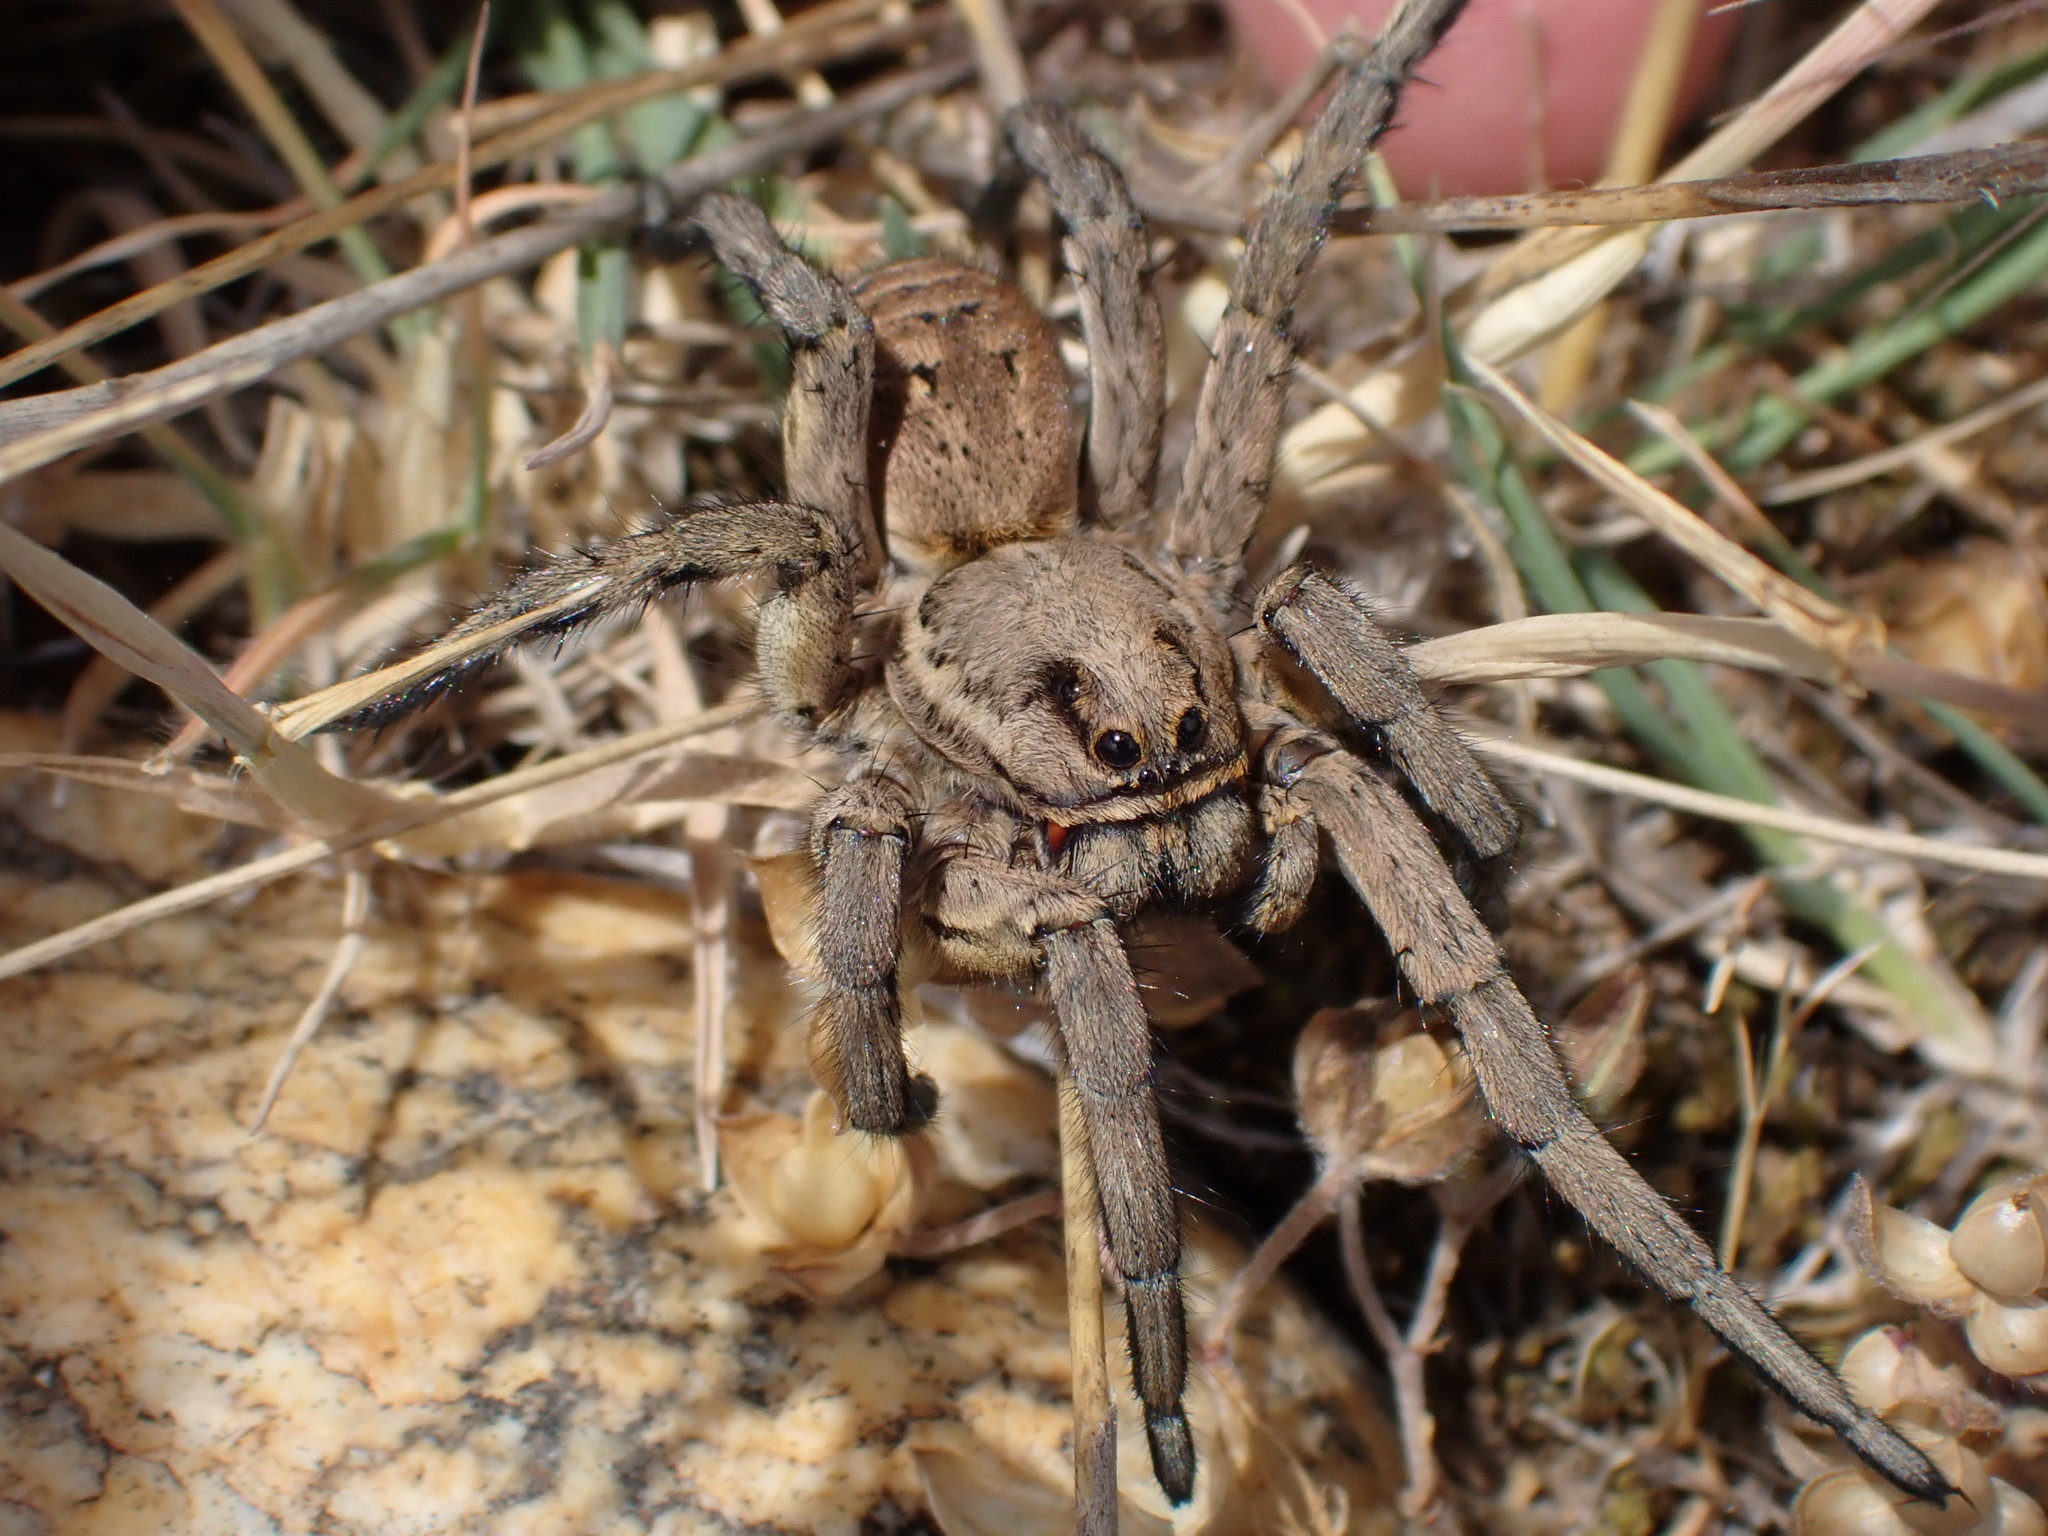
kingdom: Animalia
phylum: Arthropoda
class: Arachnida
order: Araneae
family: Lycosidae
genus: Lycosa
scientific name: Lycosa tarantula
